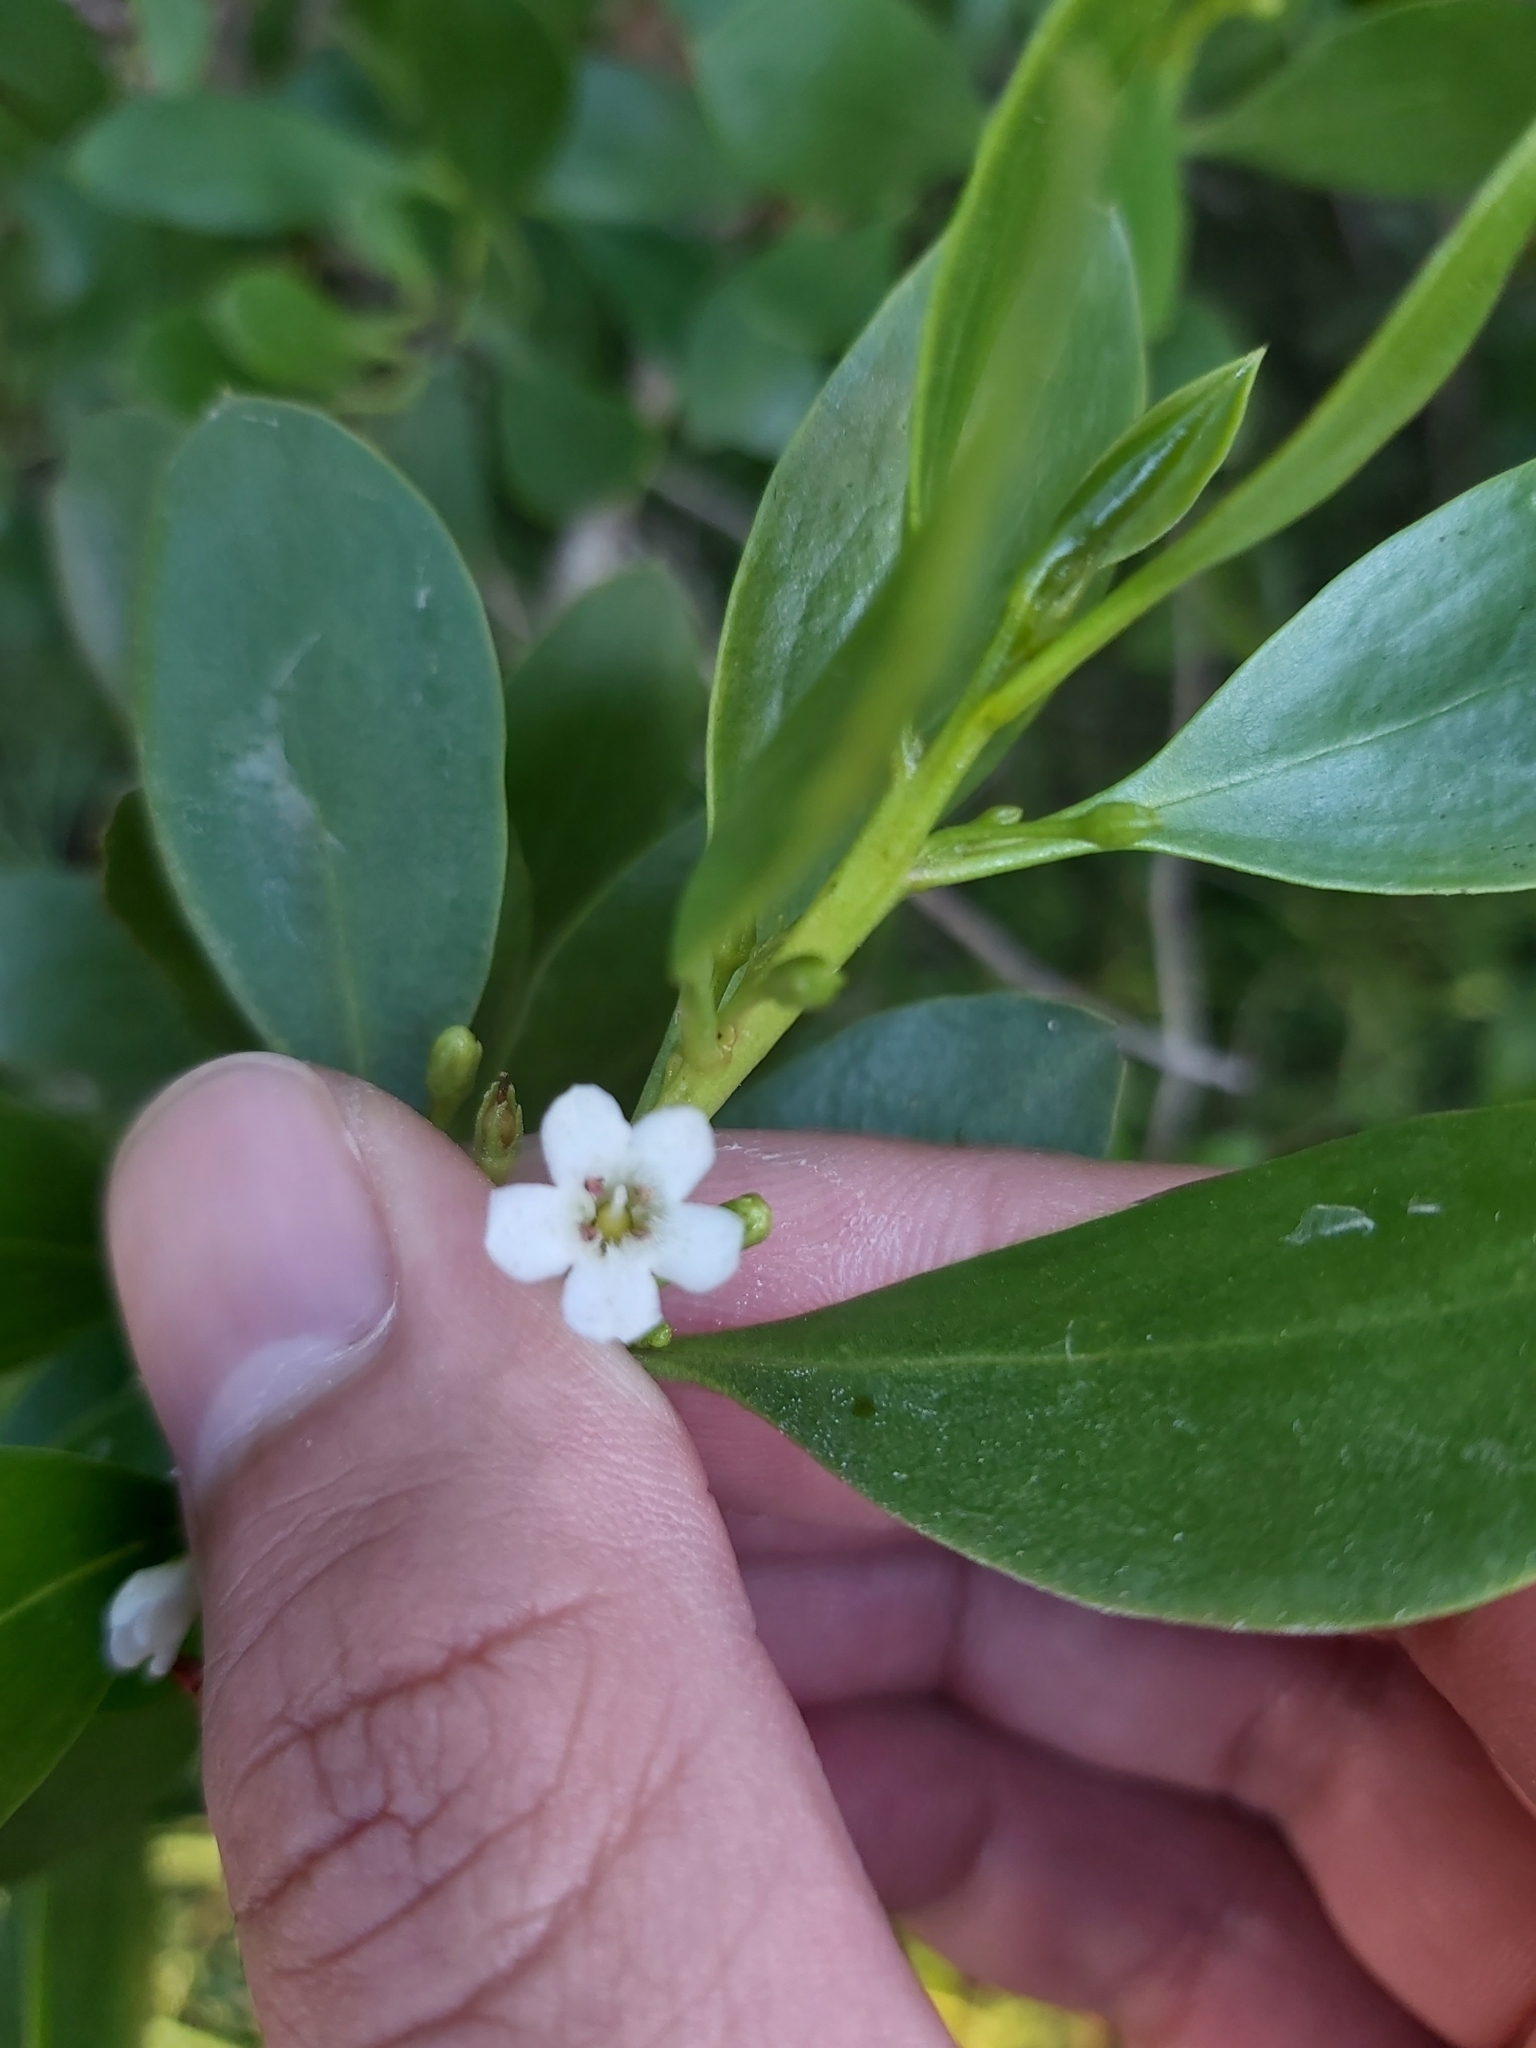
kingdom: Plantae
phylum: Tracheophyta
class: Magnoliopsida
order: Lamiales
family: Scrophulariaceae
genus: Myoporum
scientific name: Myoporum boninense
